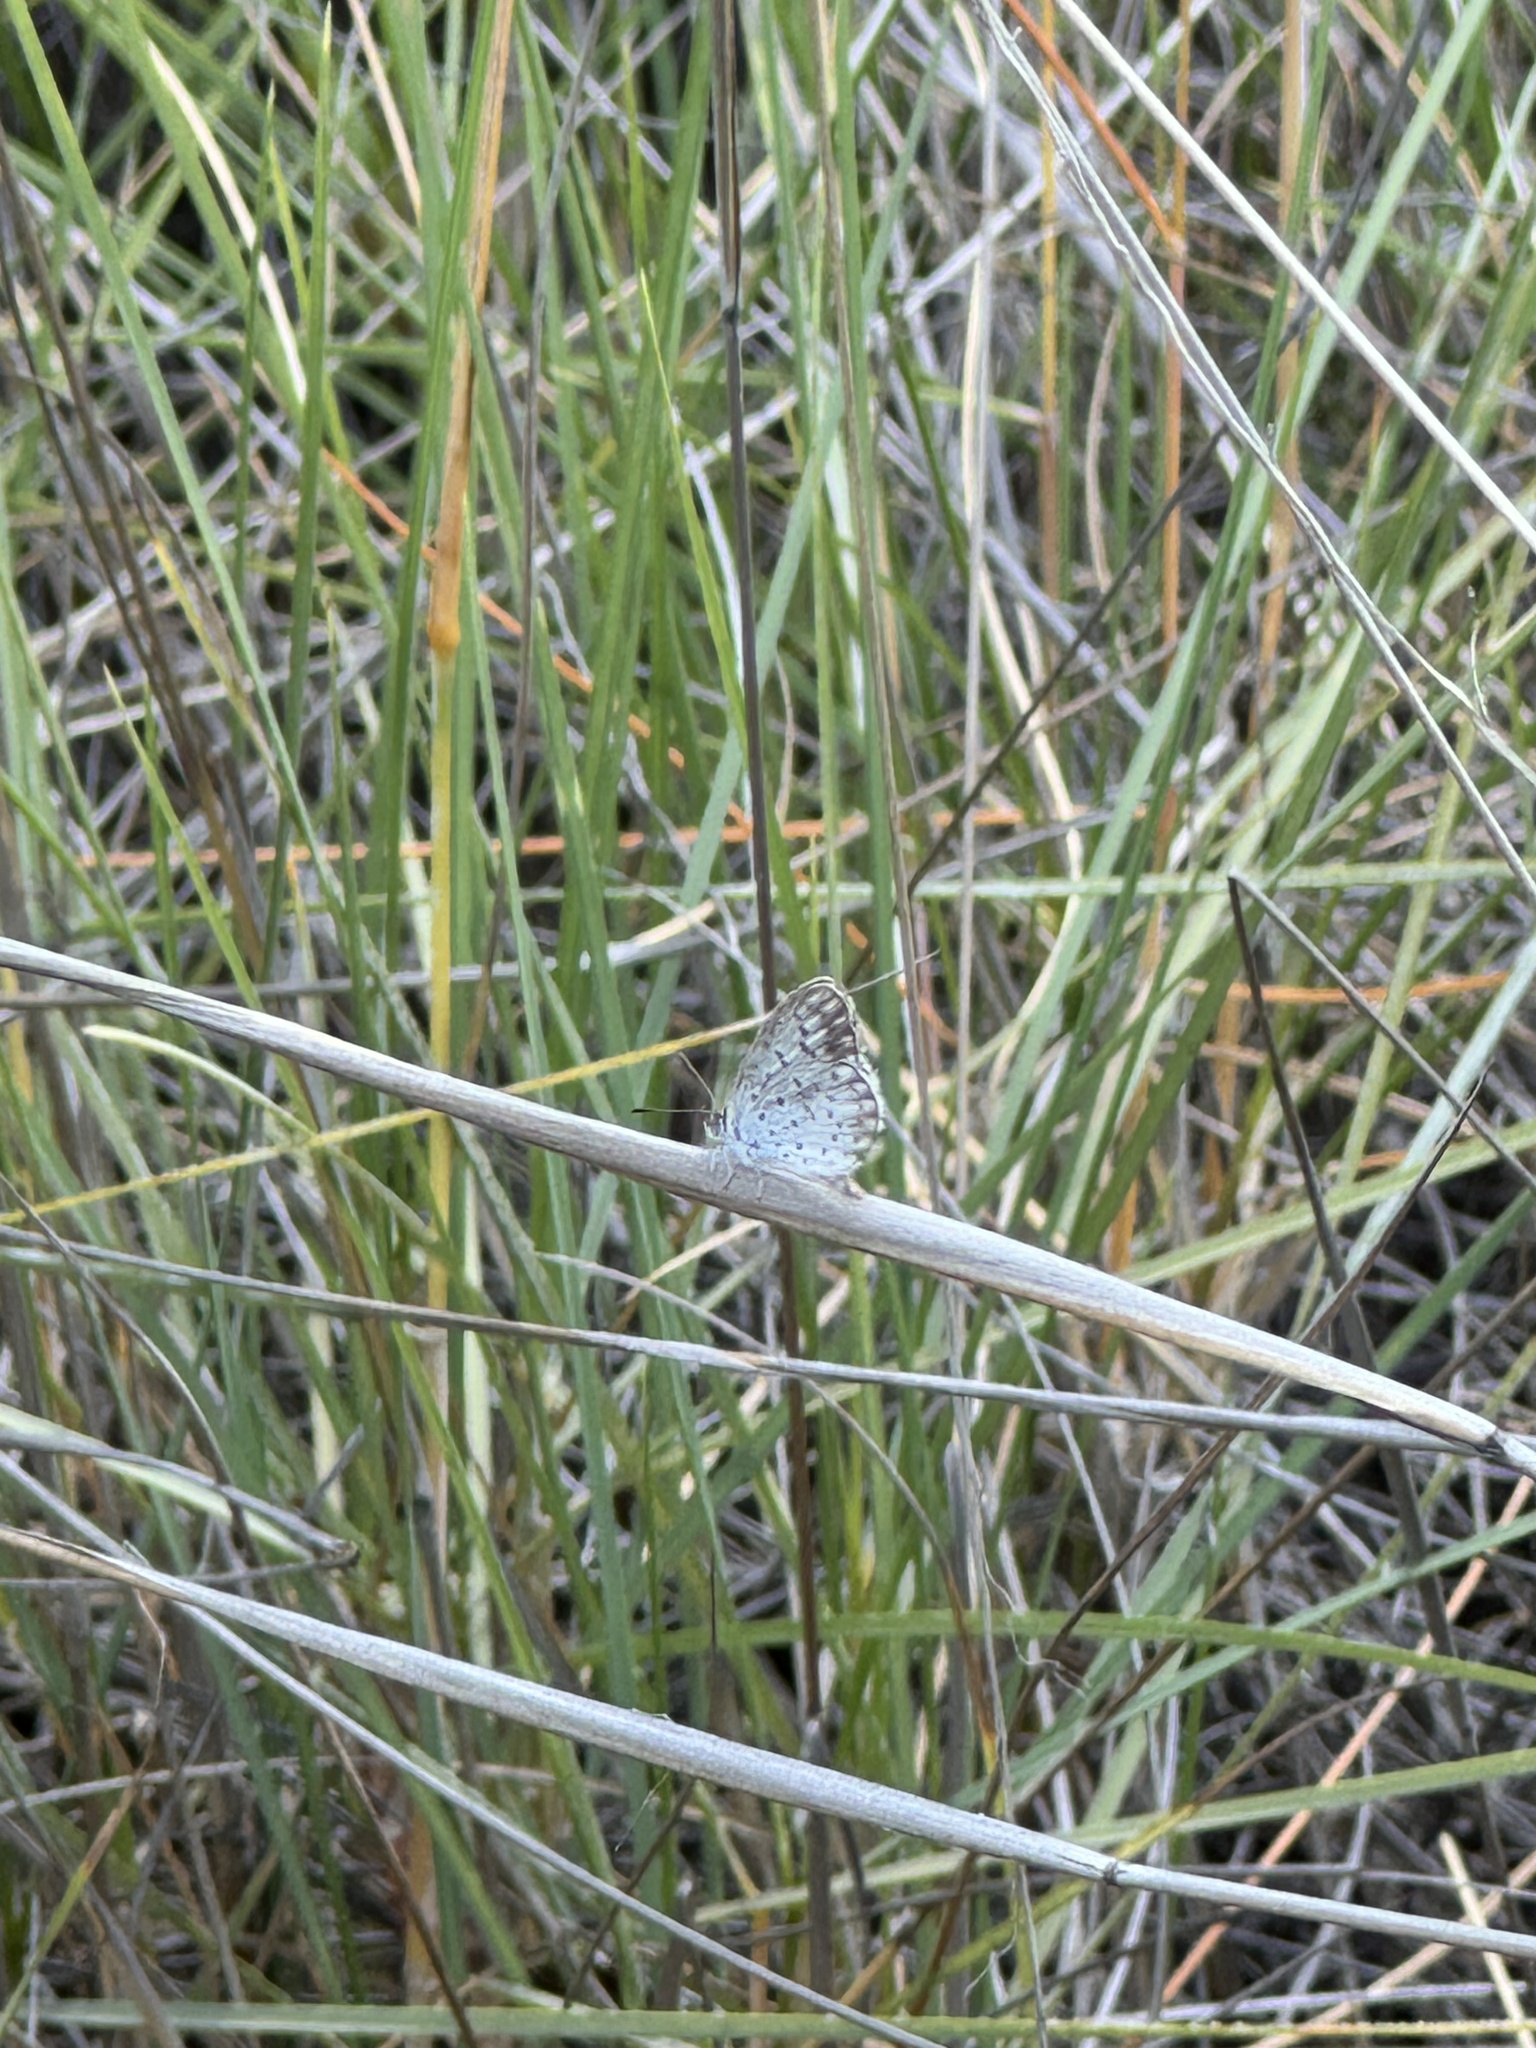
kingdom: Animalia
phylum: Arthropoda
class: Insecta
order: Lepidoptera
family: Lycaenidae
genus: Candalides
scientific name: Candalides
